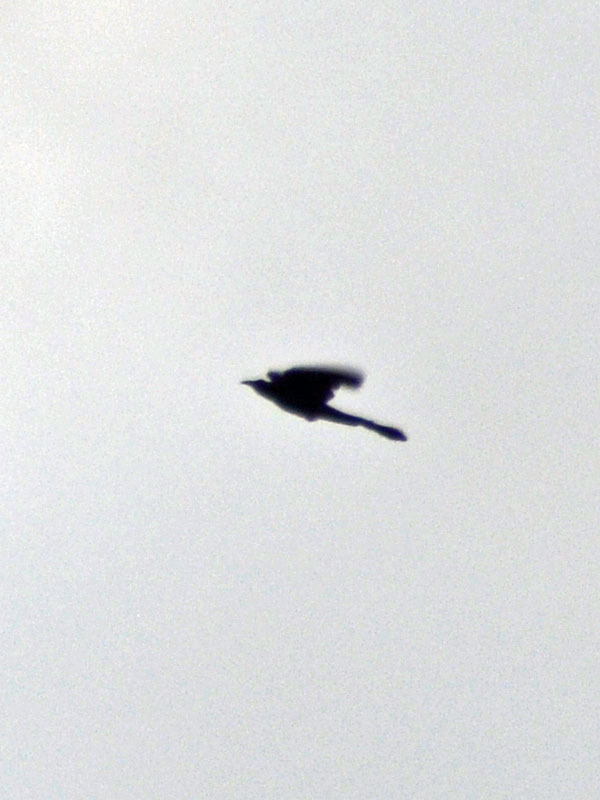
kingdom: Animalia
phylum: Chordata
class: Aves
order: Passeriformes
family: Icteridae
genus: Quiscalus
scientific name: Quiscalus mexicanus
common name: Great-tailed grackle
